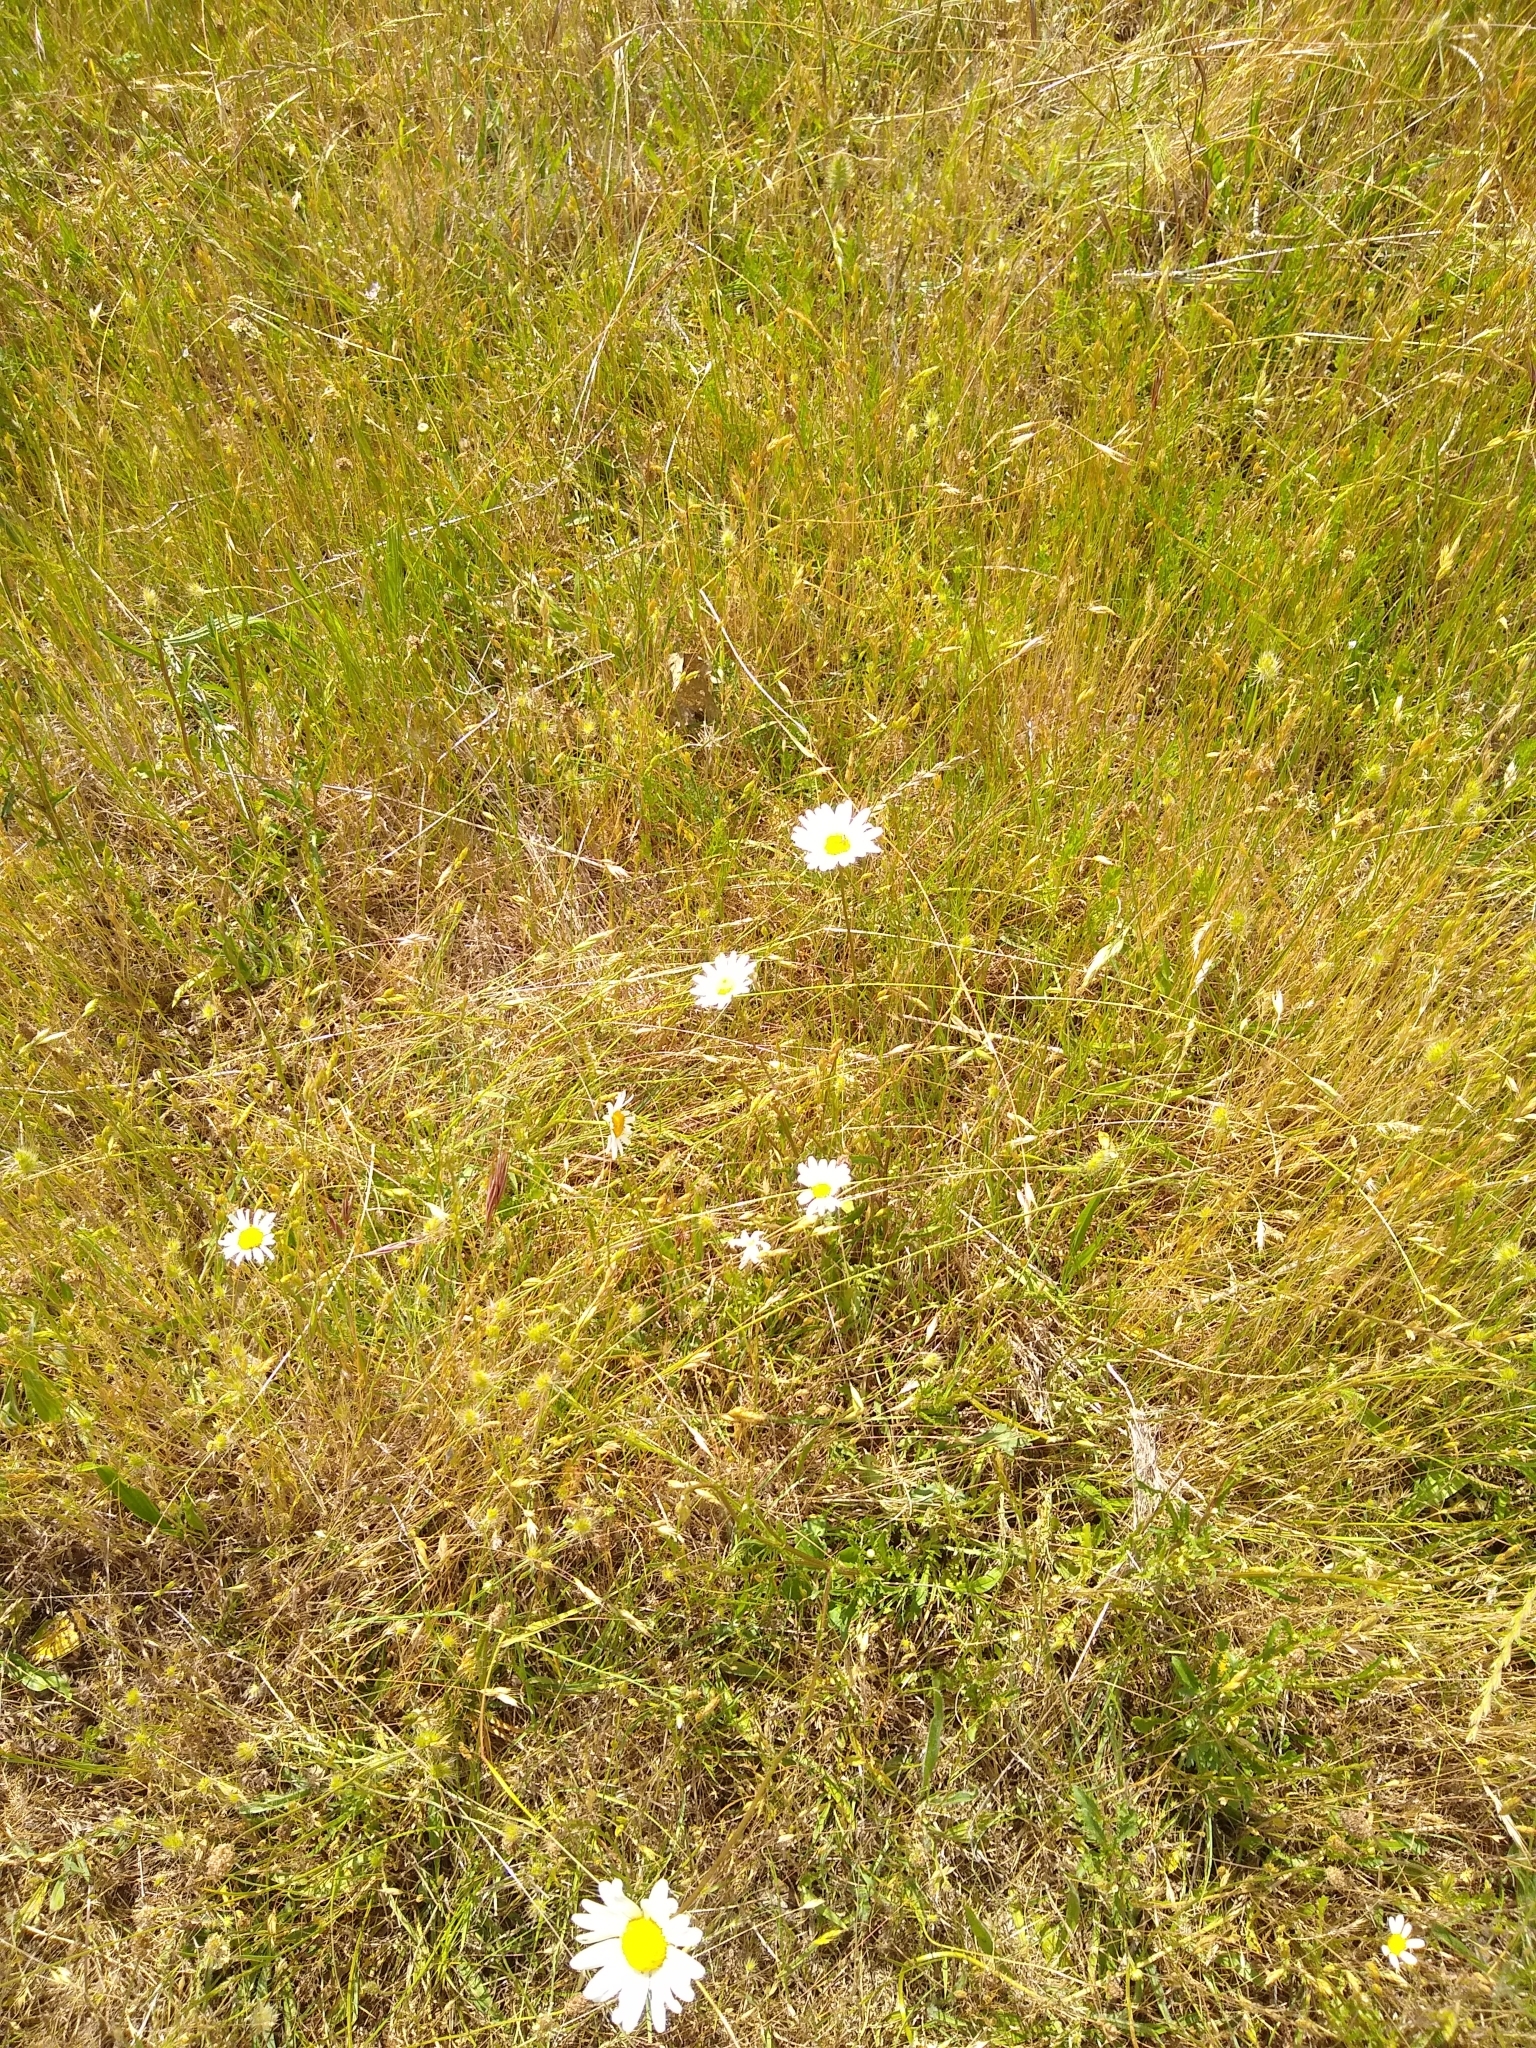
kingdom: Plantae
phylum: Tracheophyta
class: Magnoliopsida
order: Asterales
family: Asteraceae
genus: Leucanthemum
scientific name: Leucanthemum vulgare
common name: Oxeye daisy
